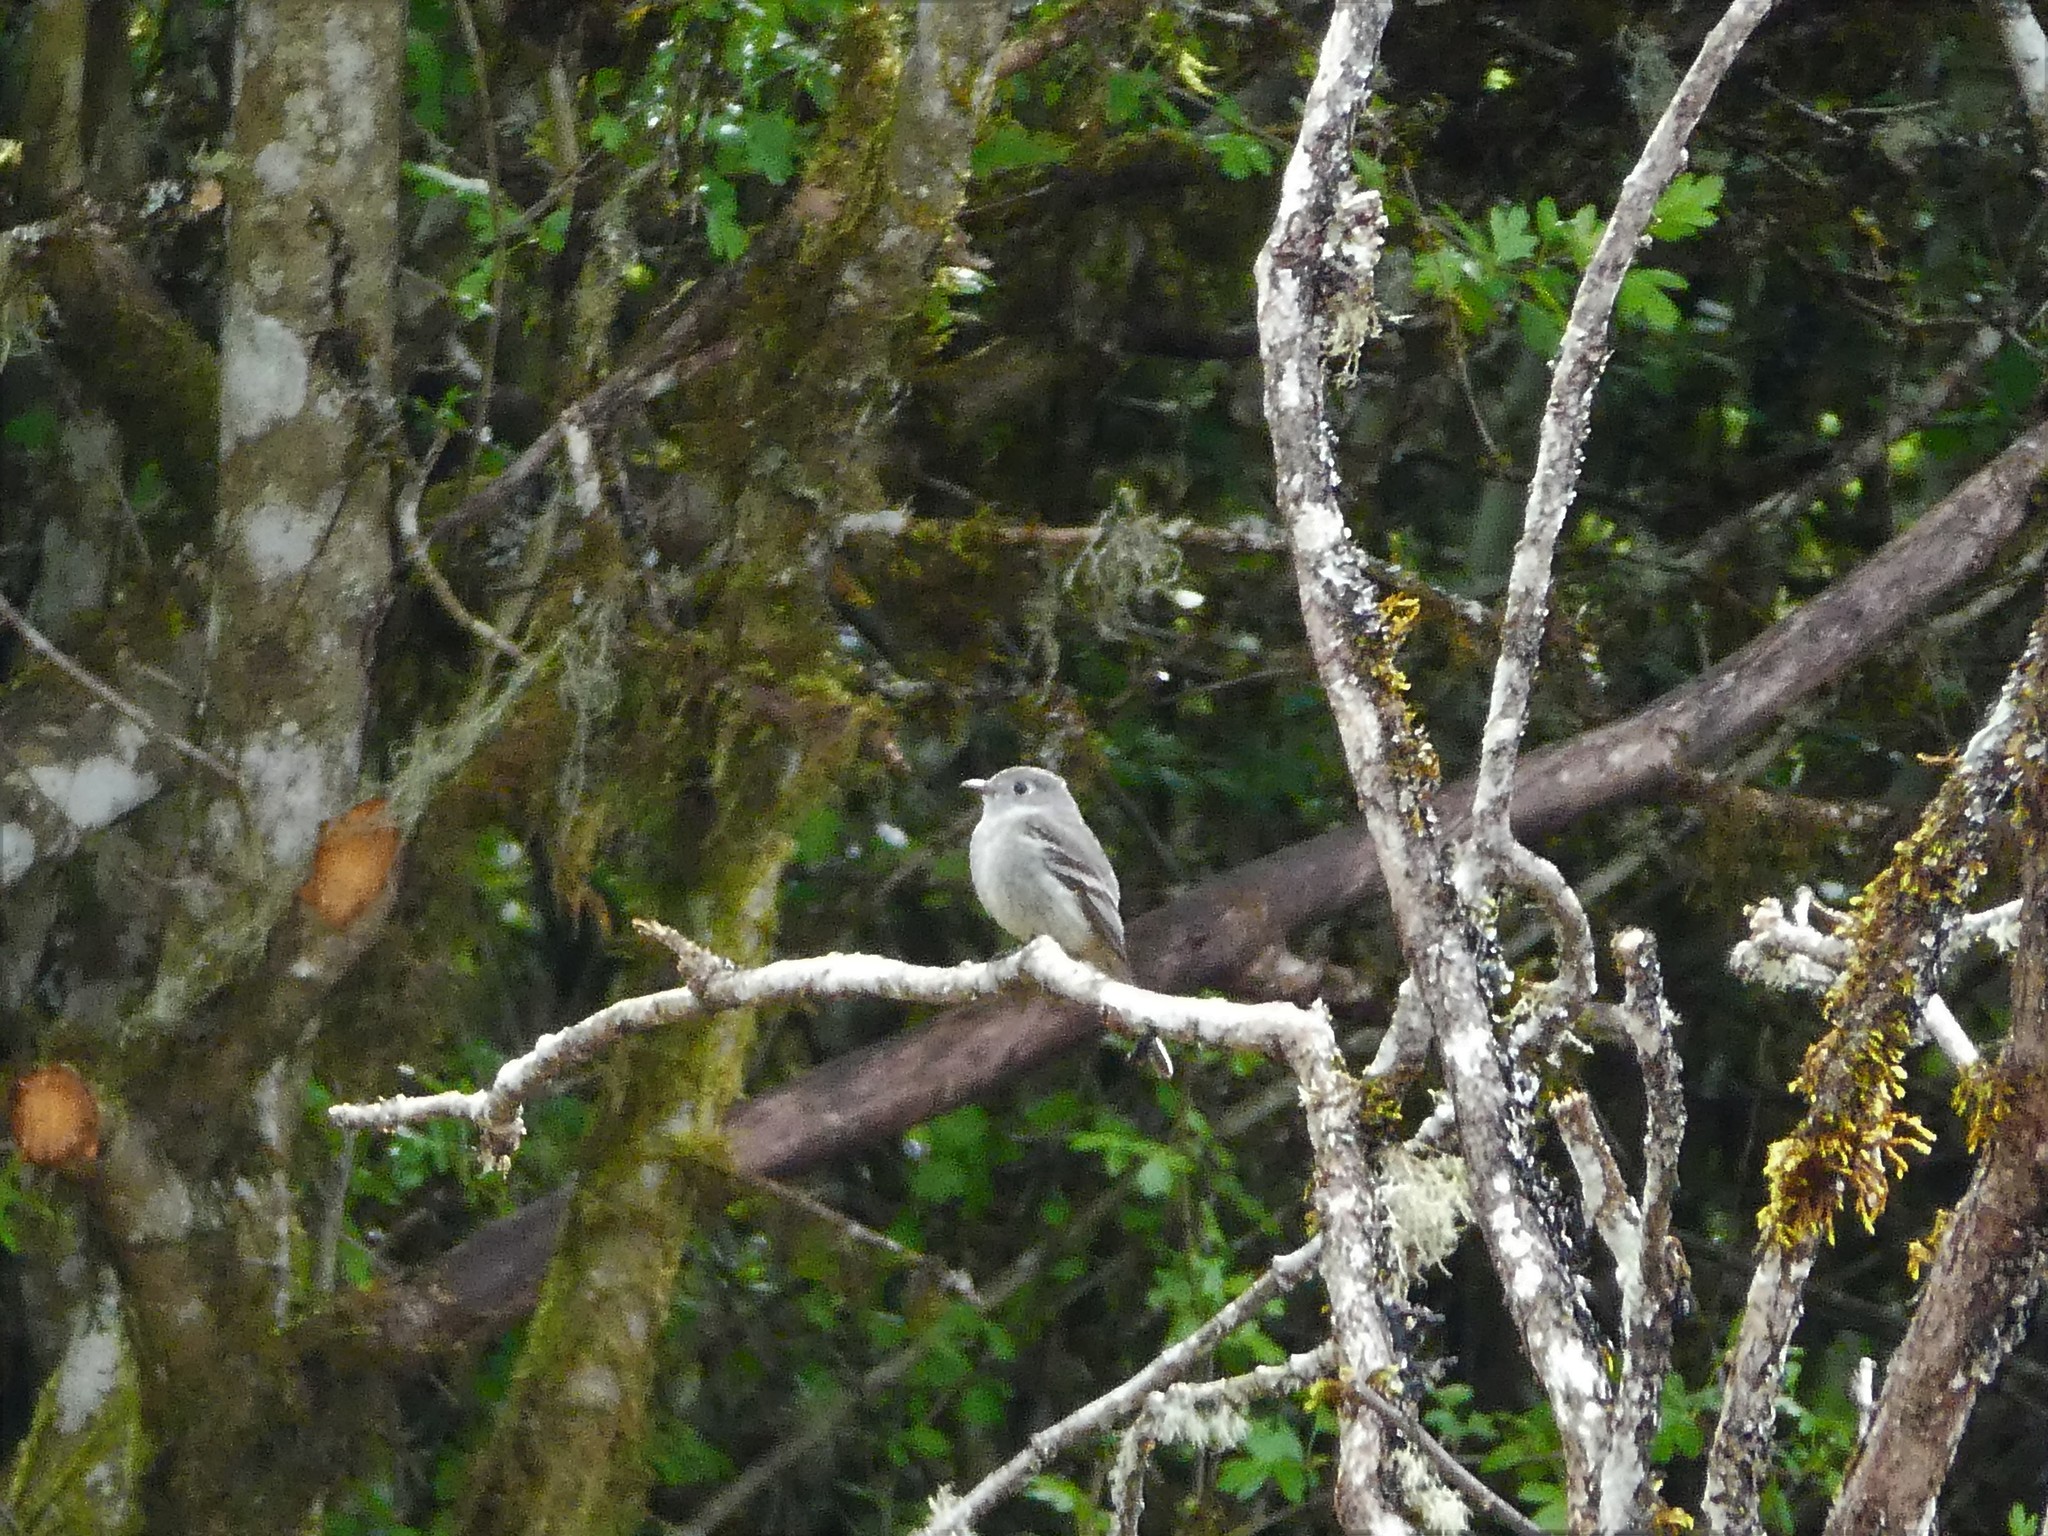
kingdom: Animalia
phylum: Chordata
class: Aves
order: Passeriformes
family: Tyrannidae
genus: Empidonax
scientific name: Empidonax difficilis
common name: Pacific-slope flycatcher
